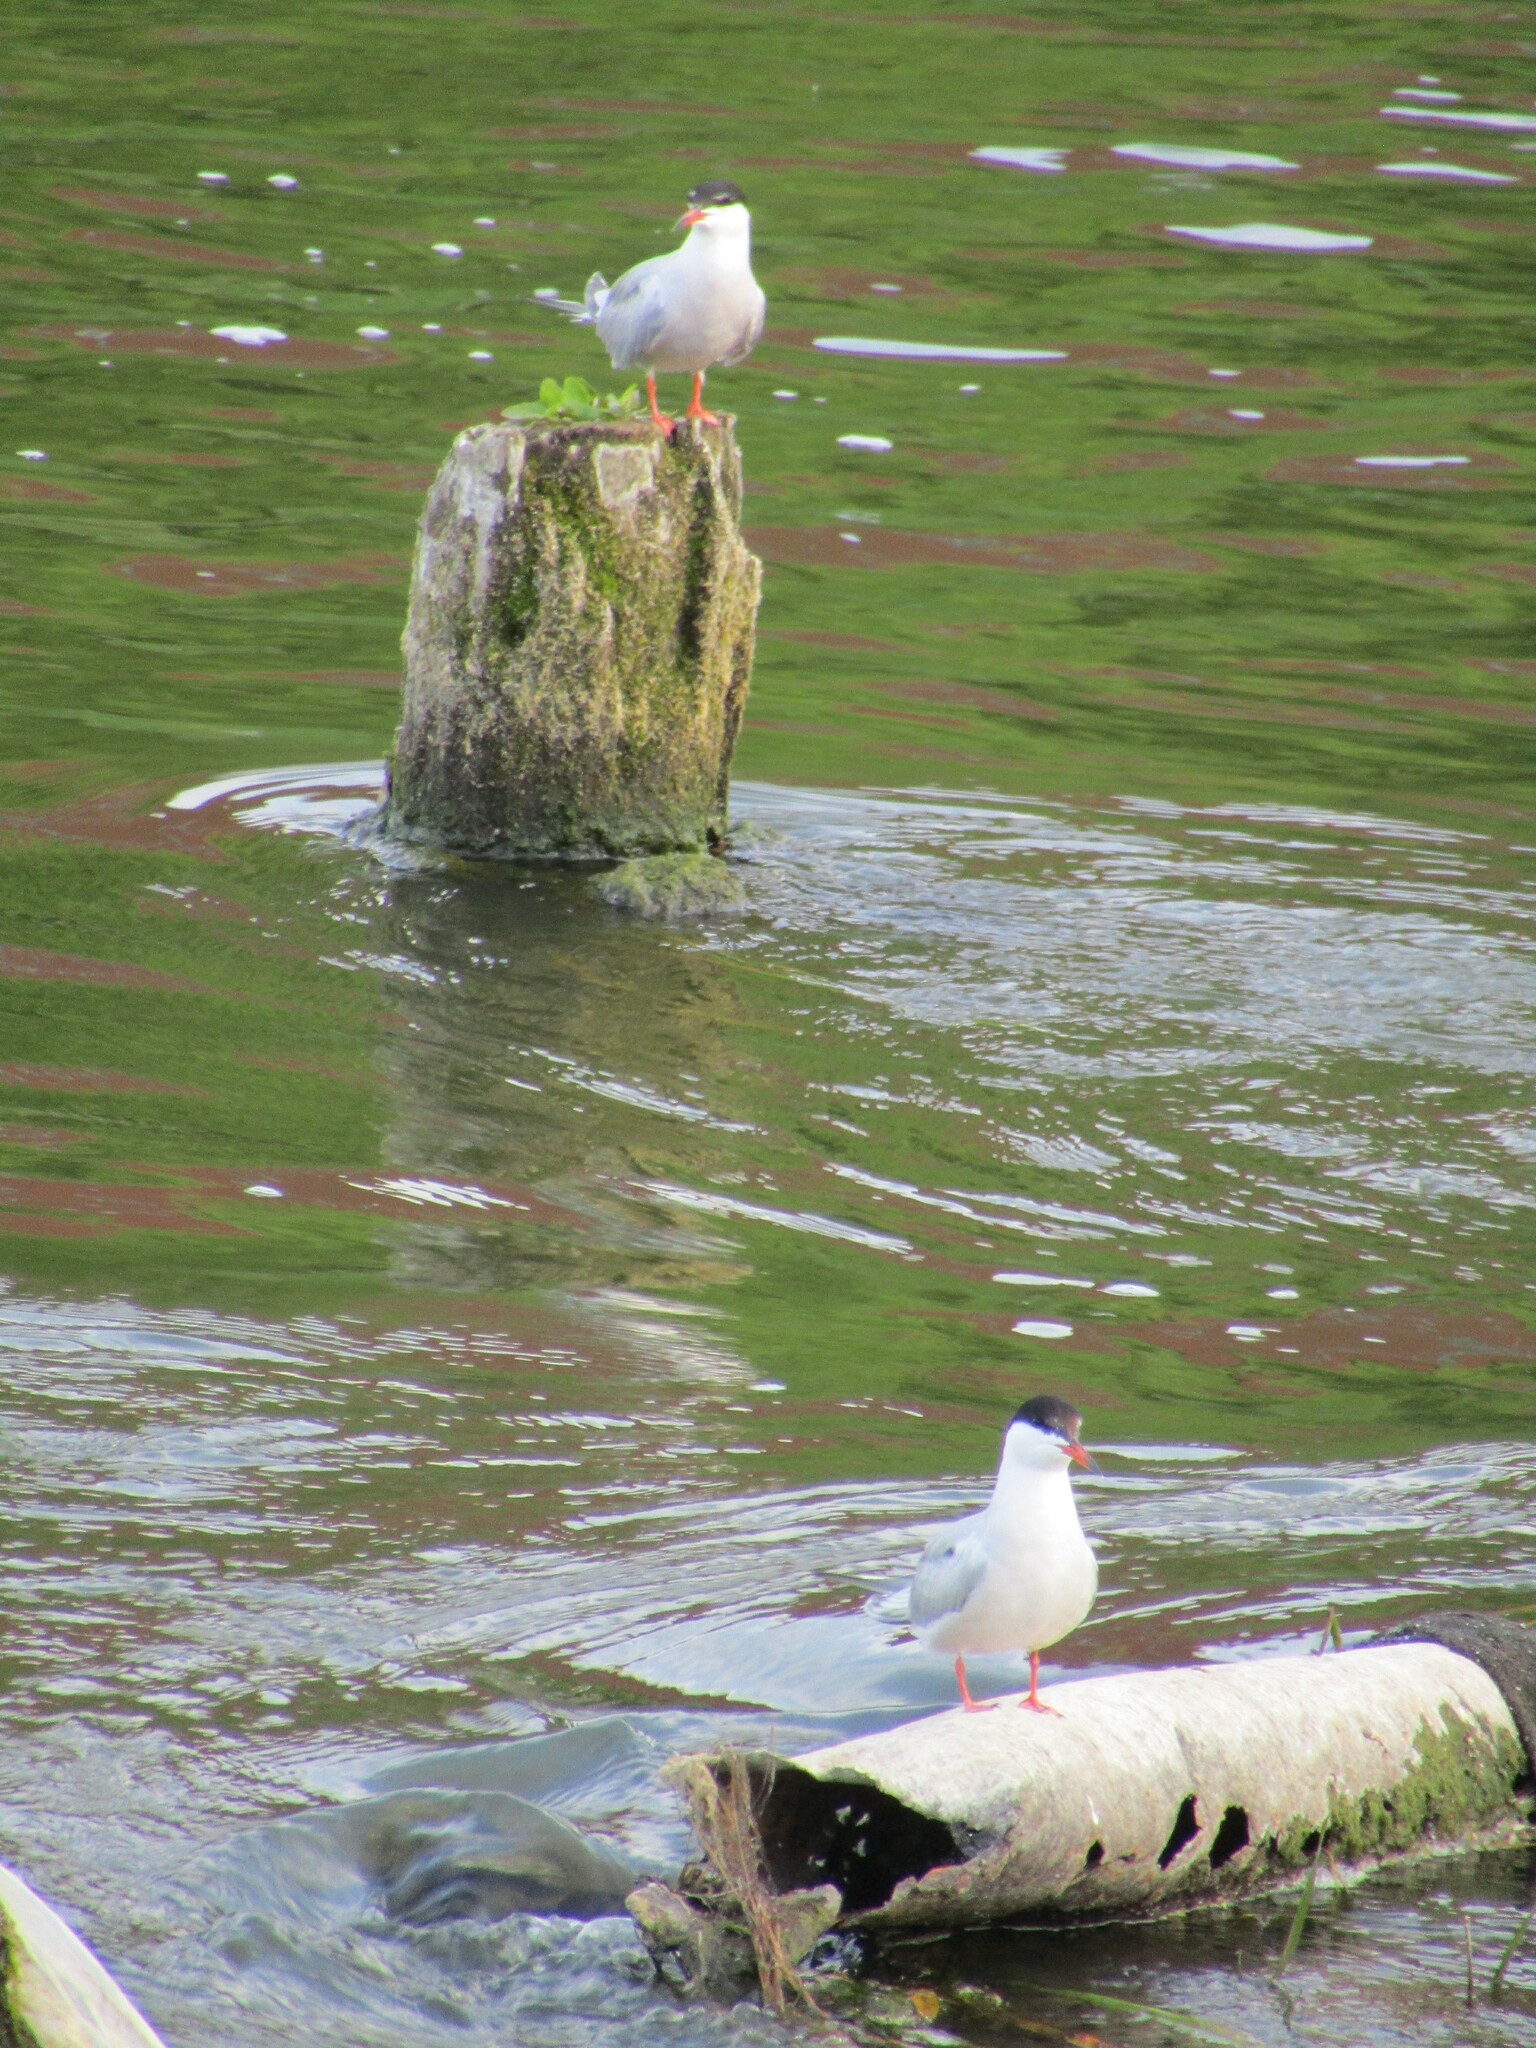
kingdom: Animalia
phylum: Chordata
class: Aves
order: Charadriiformes
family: Laridae
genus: Sterna
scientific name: Sterna hirundo
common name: Common tern
